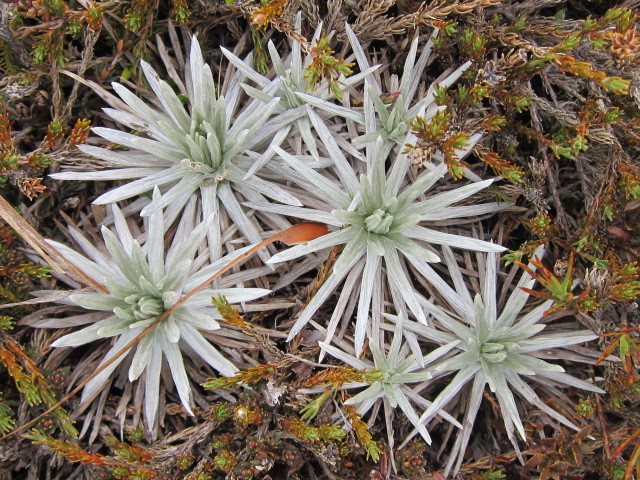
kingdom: Plantae
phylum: Tracheophyta
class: Magnoliopsida
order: Asterales
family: Asteraceae
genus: Celmisia
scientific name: Celmisia sessiliflora
